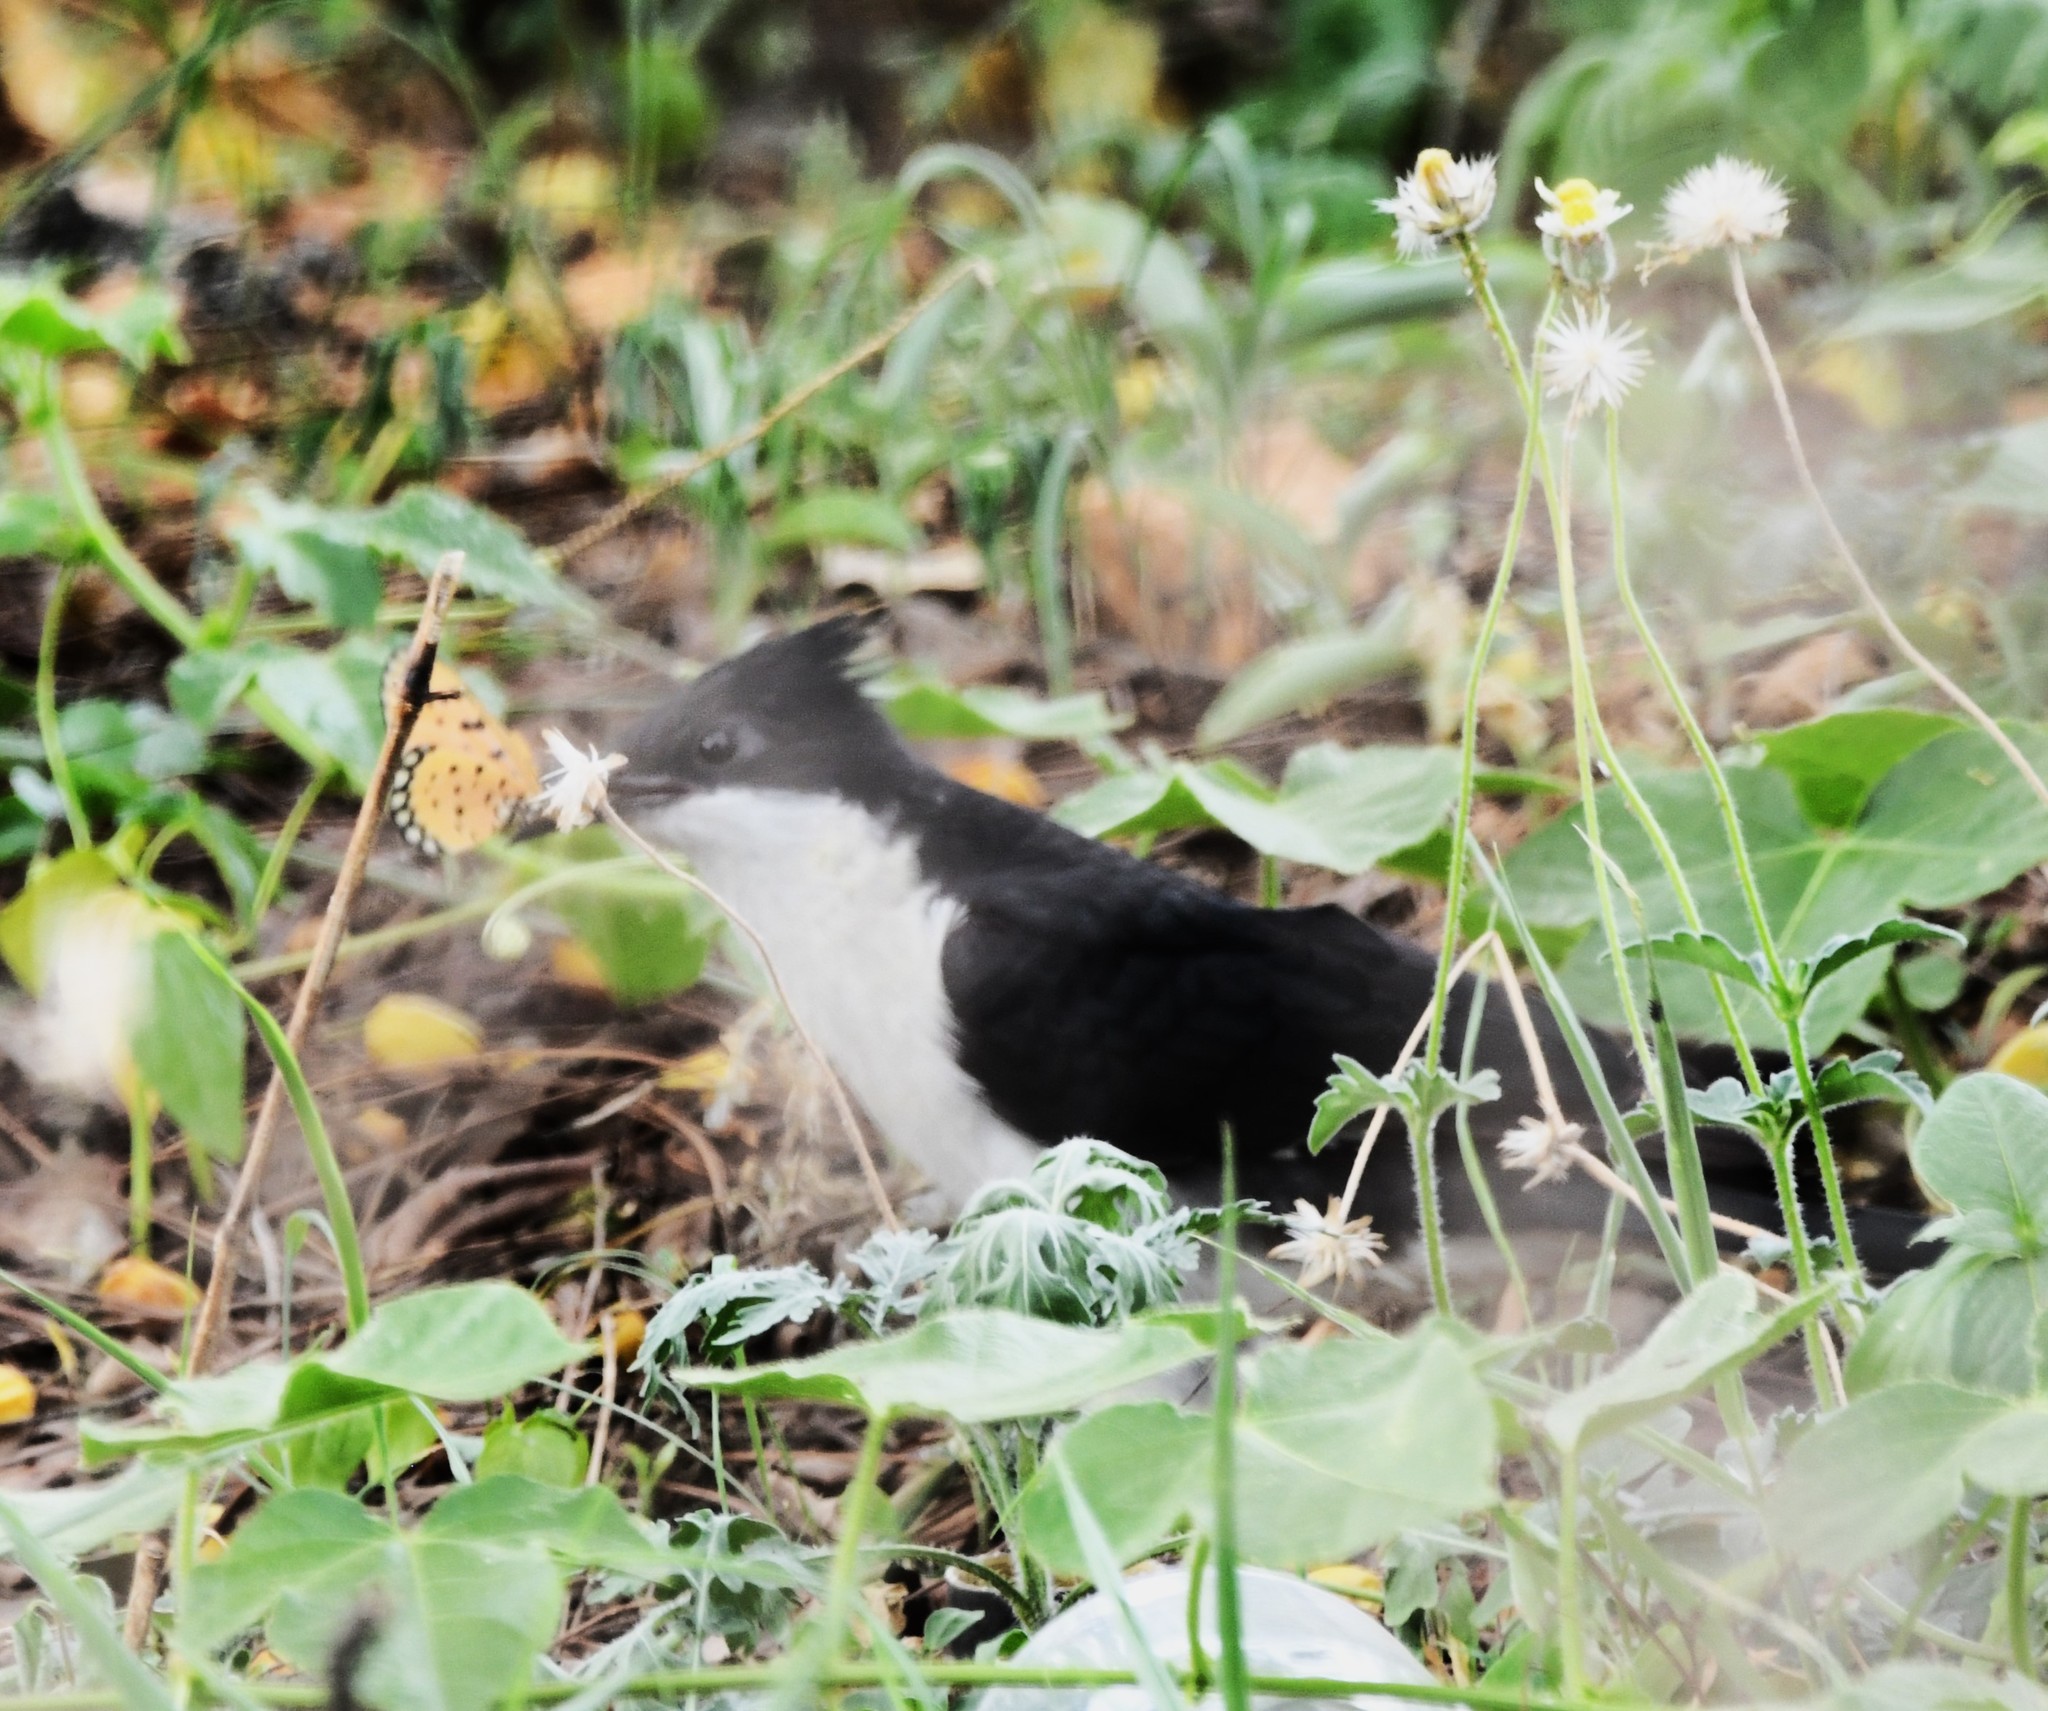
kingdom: Animalia
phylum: Chordata
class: Aves
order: Cuculiformes
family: Cuculidae
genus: Clamator
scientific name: Clamator jacobinus
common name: Jacobin cuckoo
